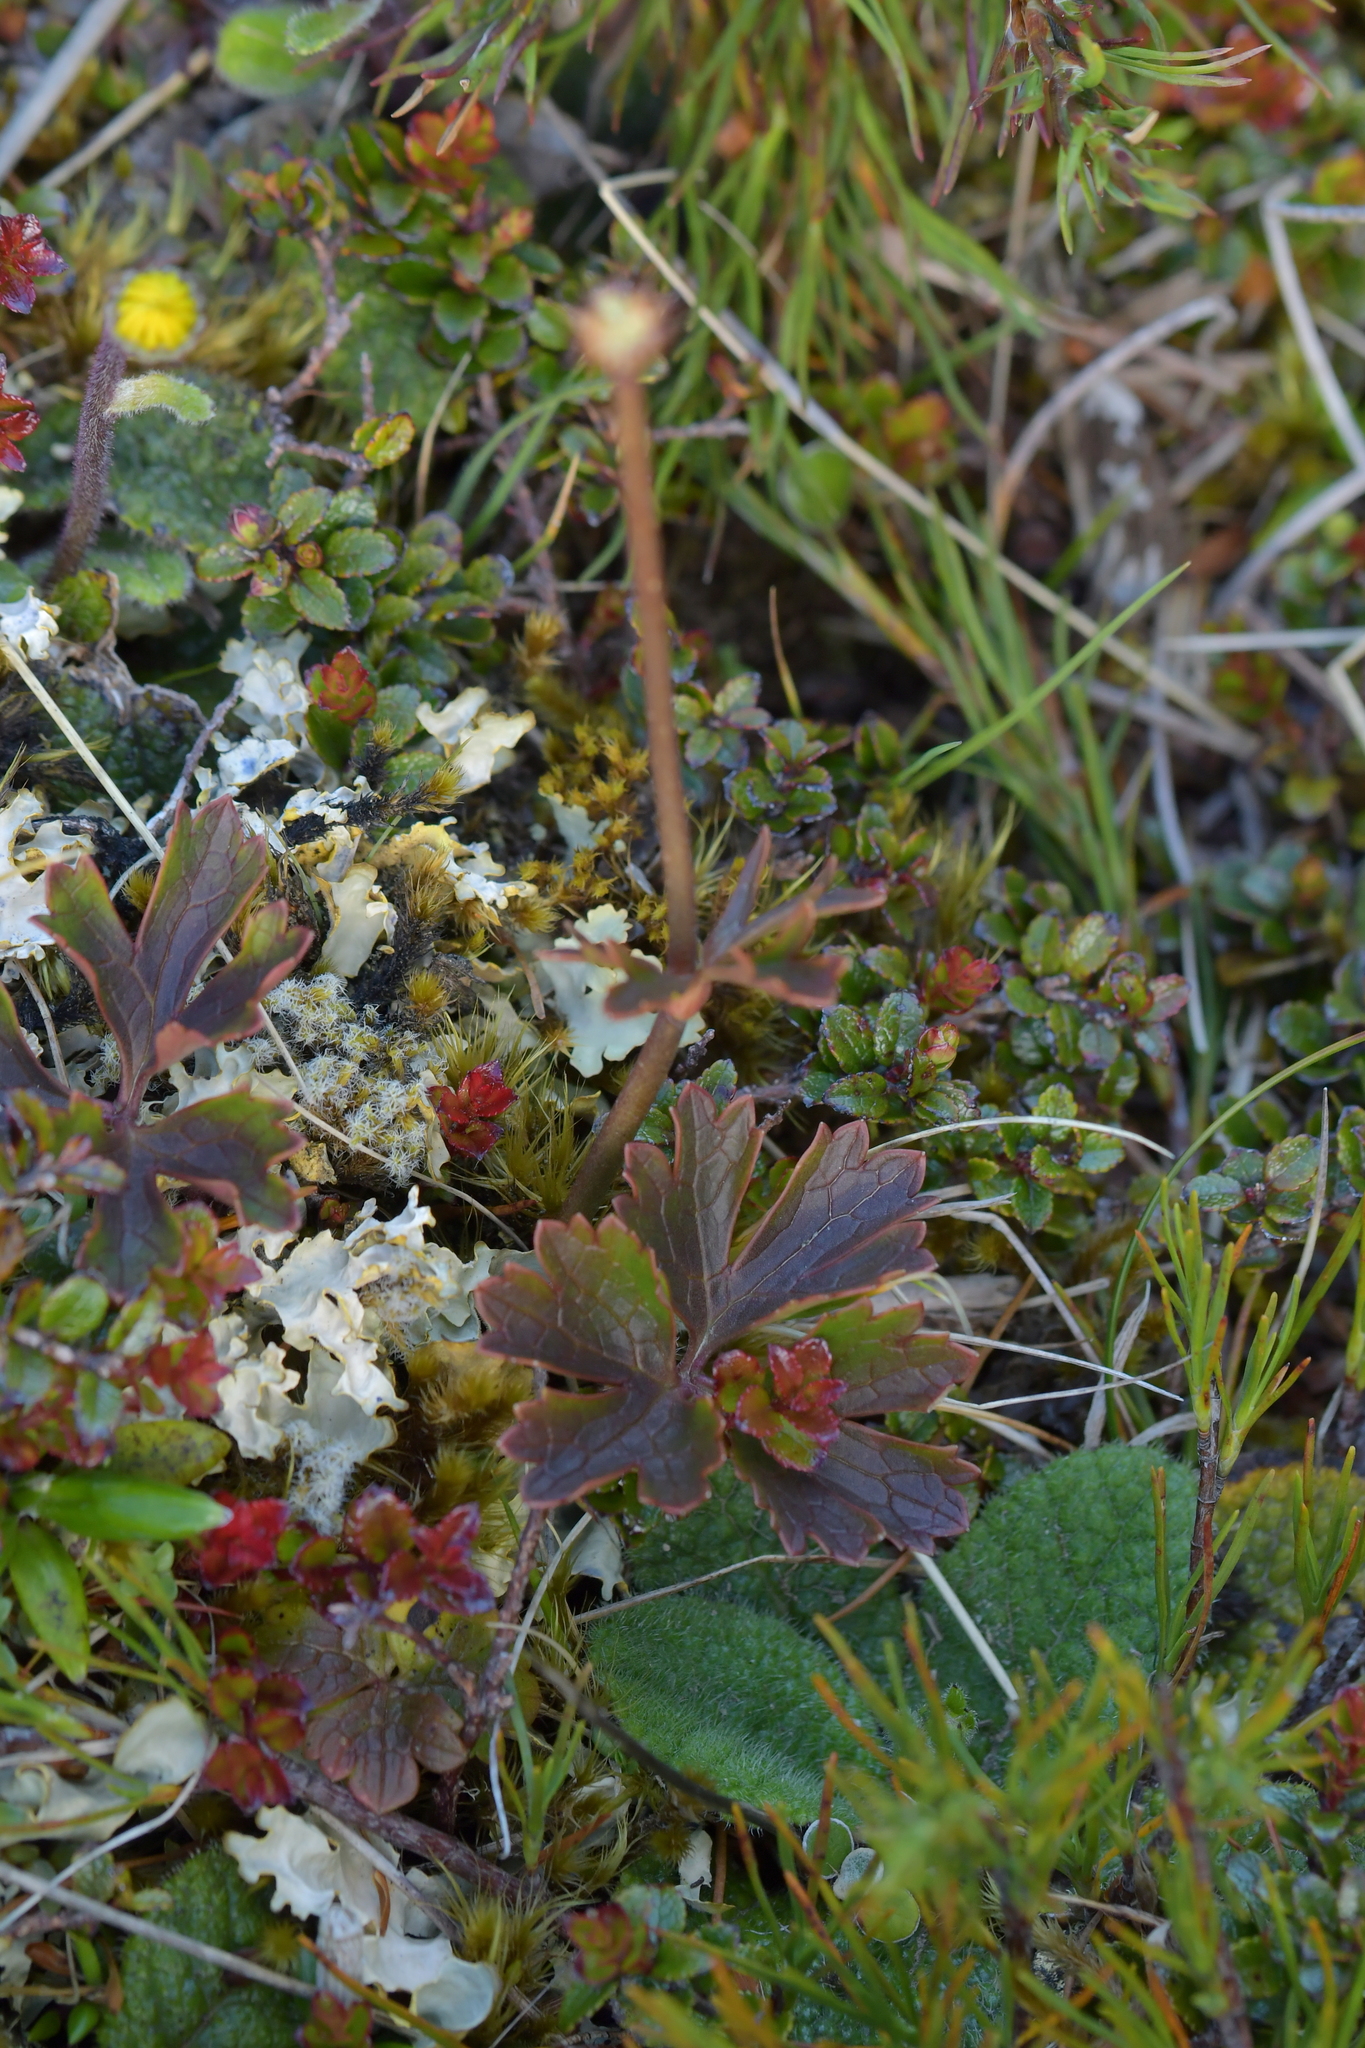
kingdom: Plantae
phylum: Tracheophyta
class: Magnoliopsida
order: Ranunculales
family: Ranunculaceae
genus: Ranunculus
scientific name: Ranunculus verticillatus
